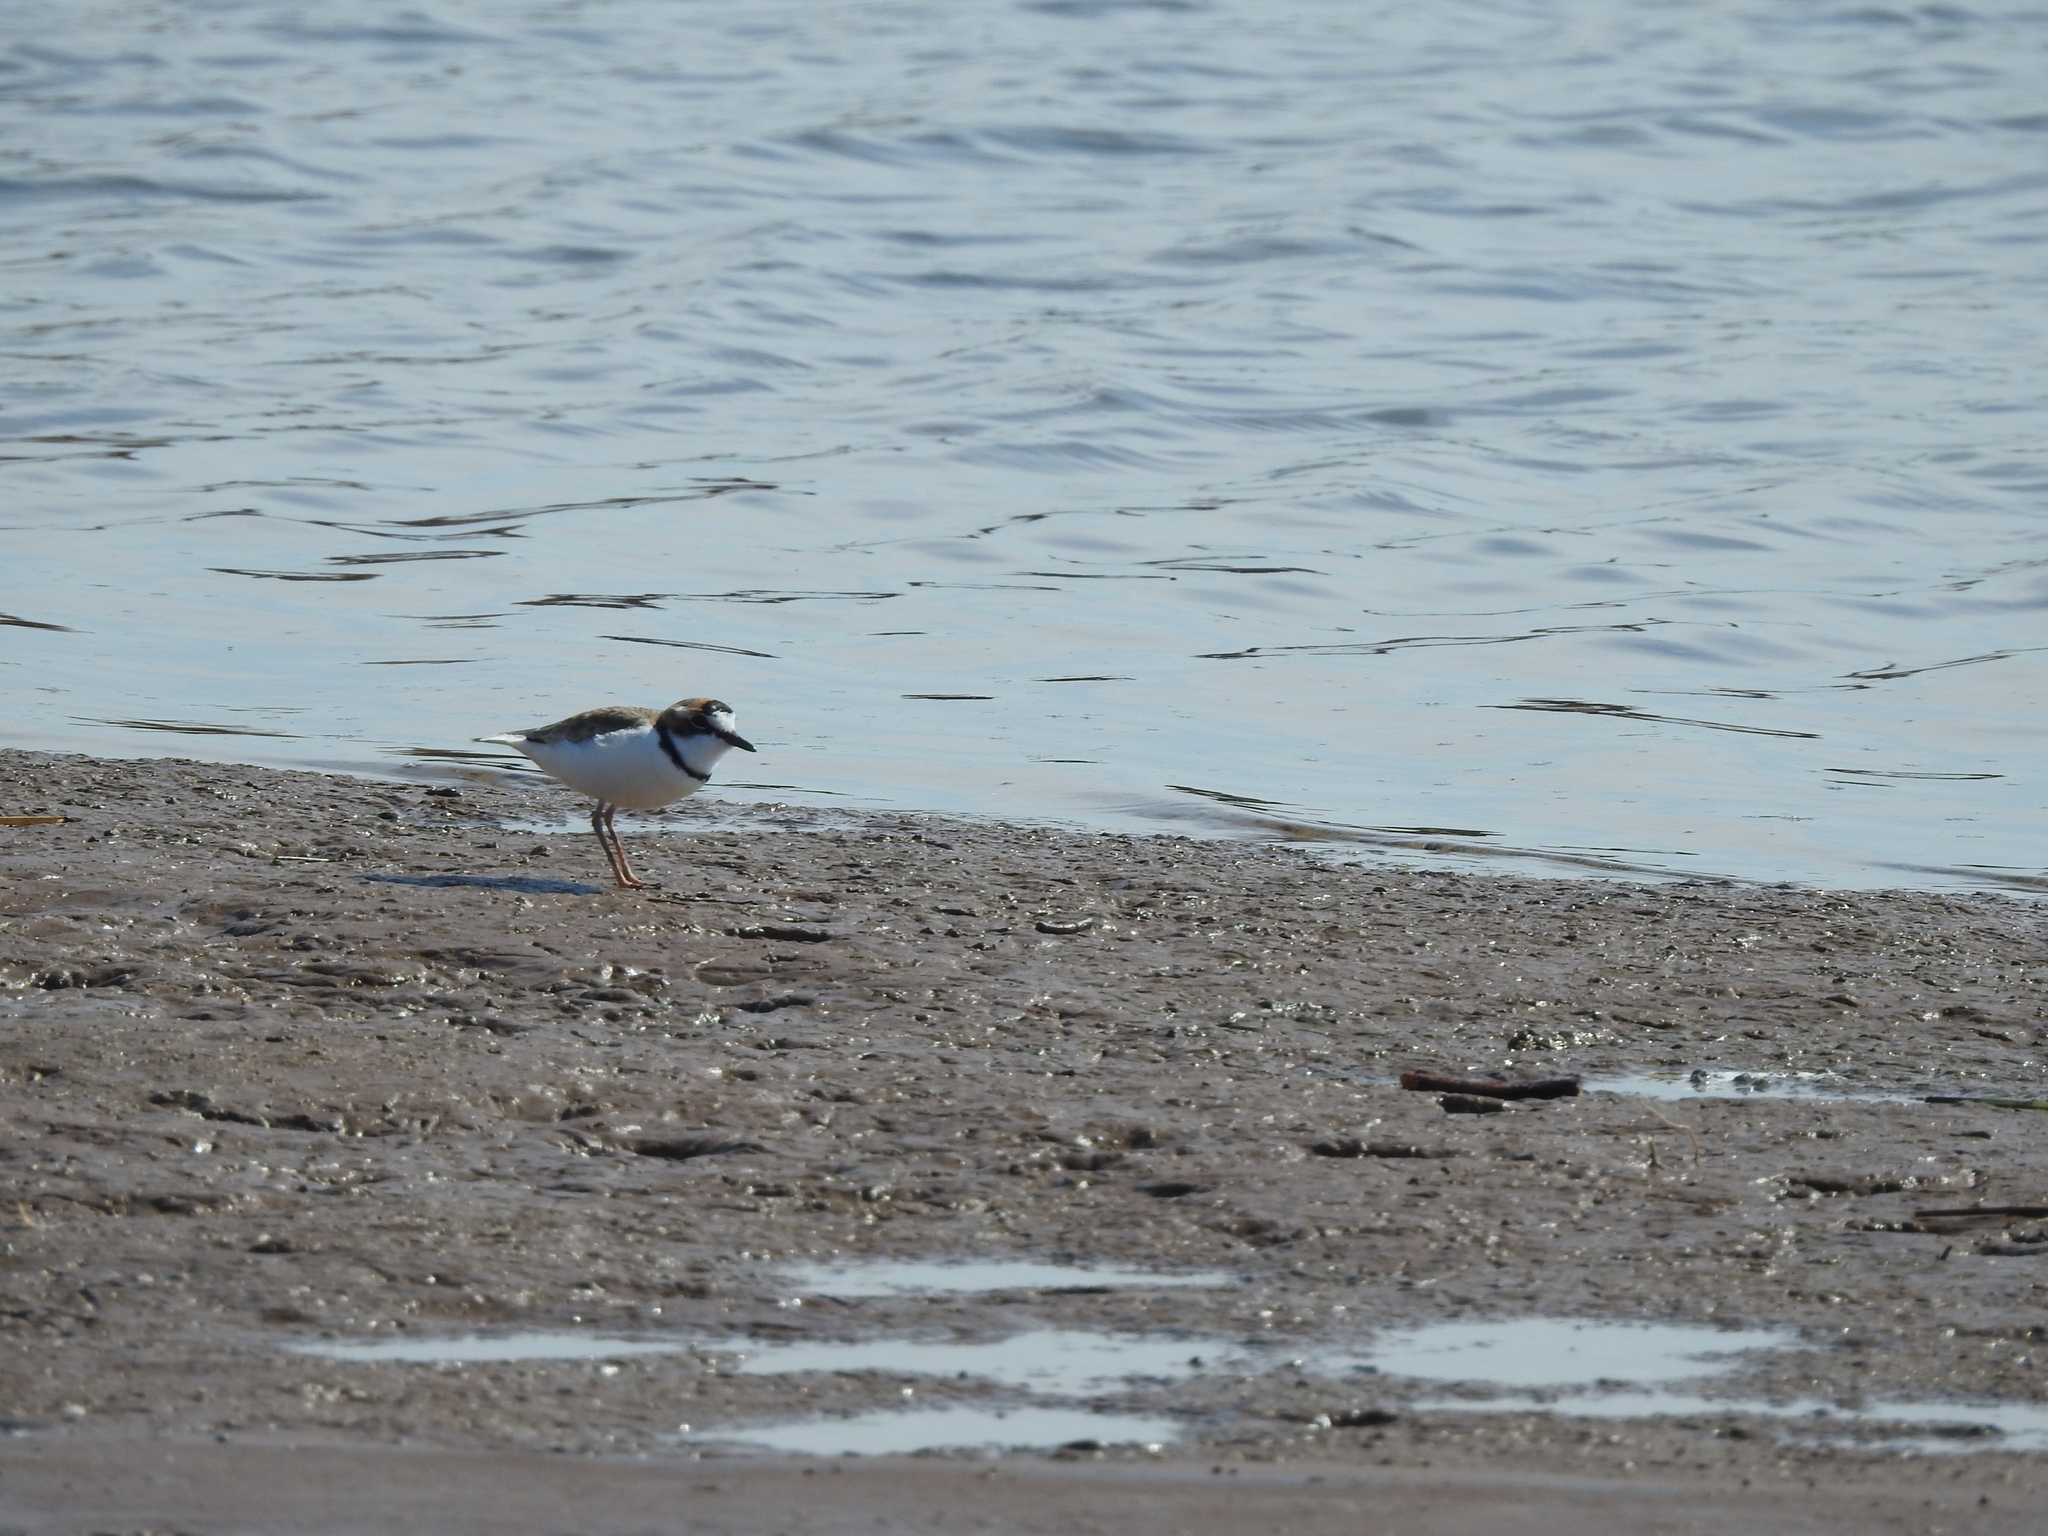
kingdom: Animalia
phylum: Chordata
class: Aves
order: Charadriiformes
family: Charadriidae
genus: Anarhynchus
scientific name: Anarhynchus
